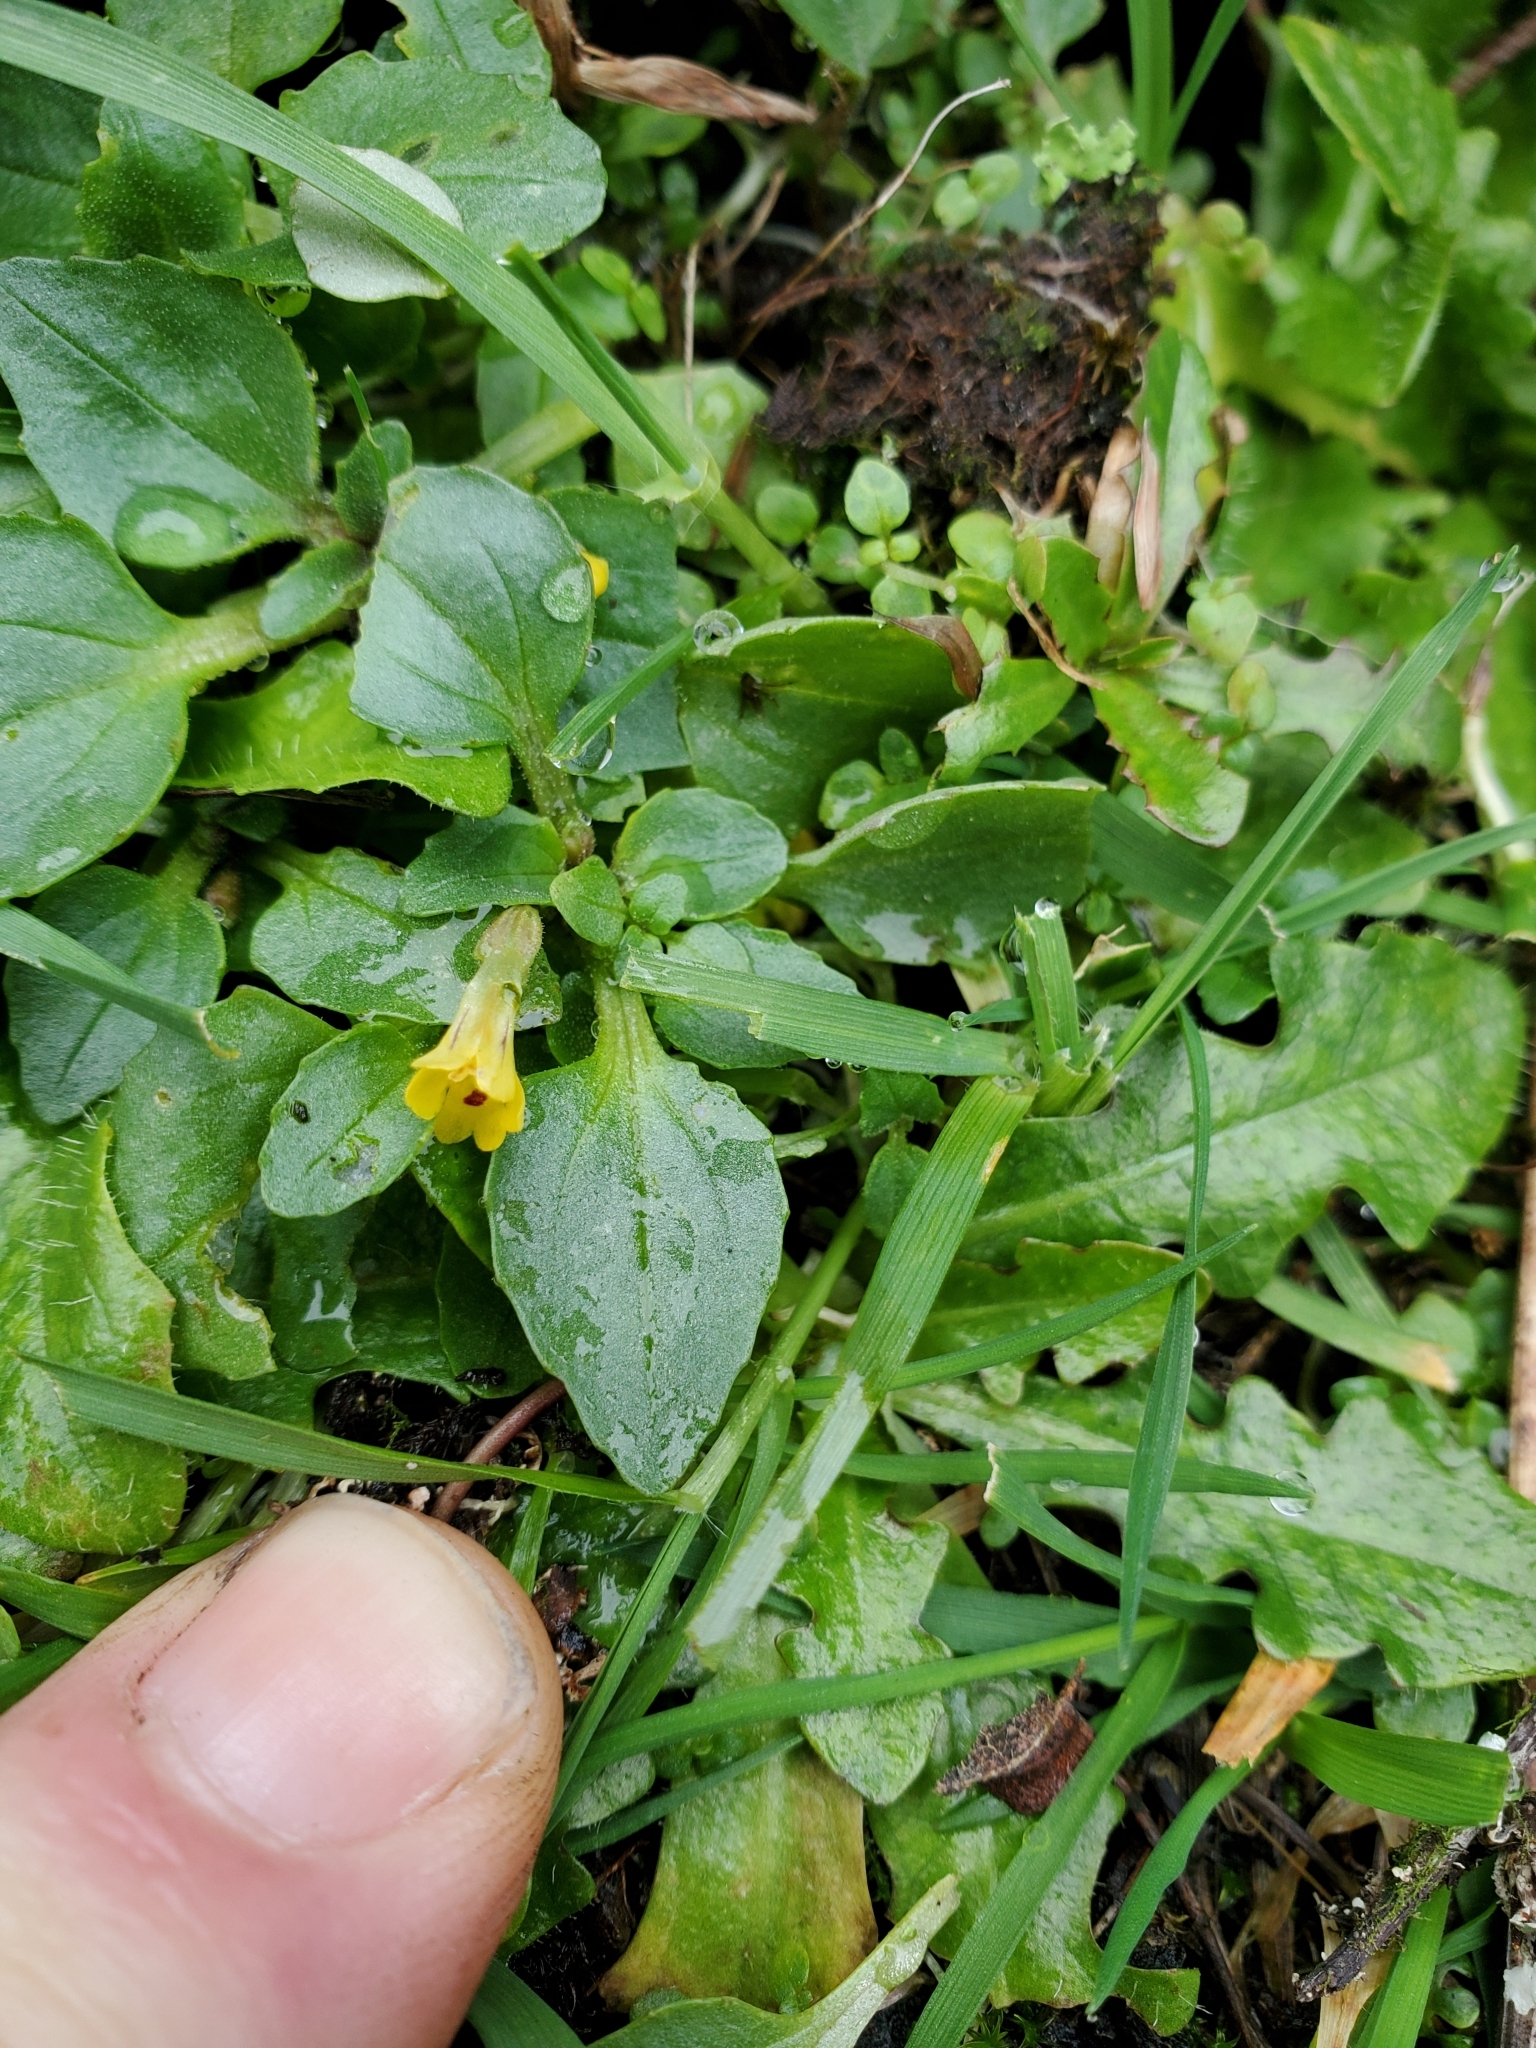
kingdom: Plantae
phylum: Tracheophyta
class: Magnoliopsida
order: Lamiales
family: Phrymaceae
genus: Erythranthe
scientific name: Erythranthe alsinoides
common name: Chickweed monkeyflower
